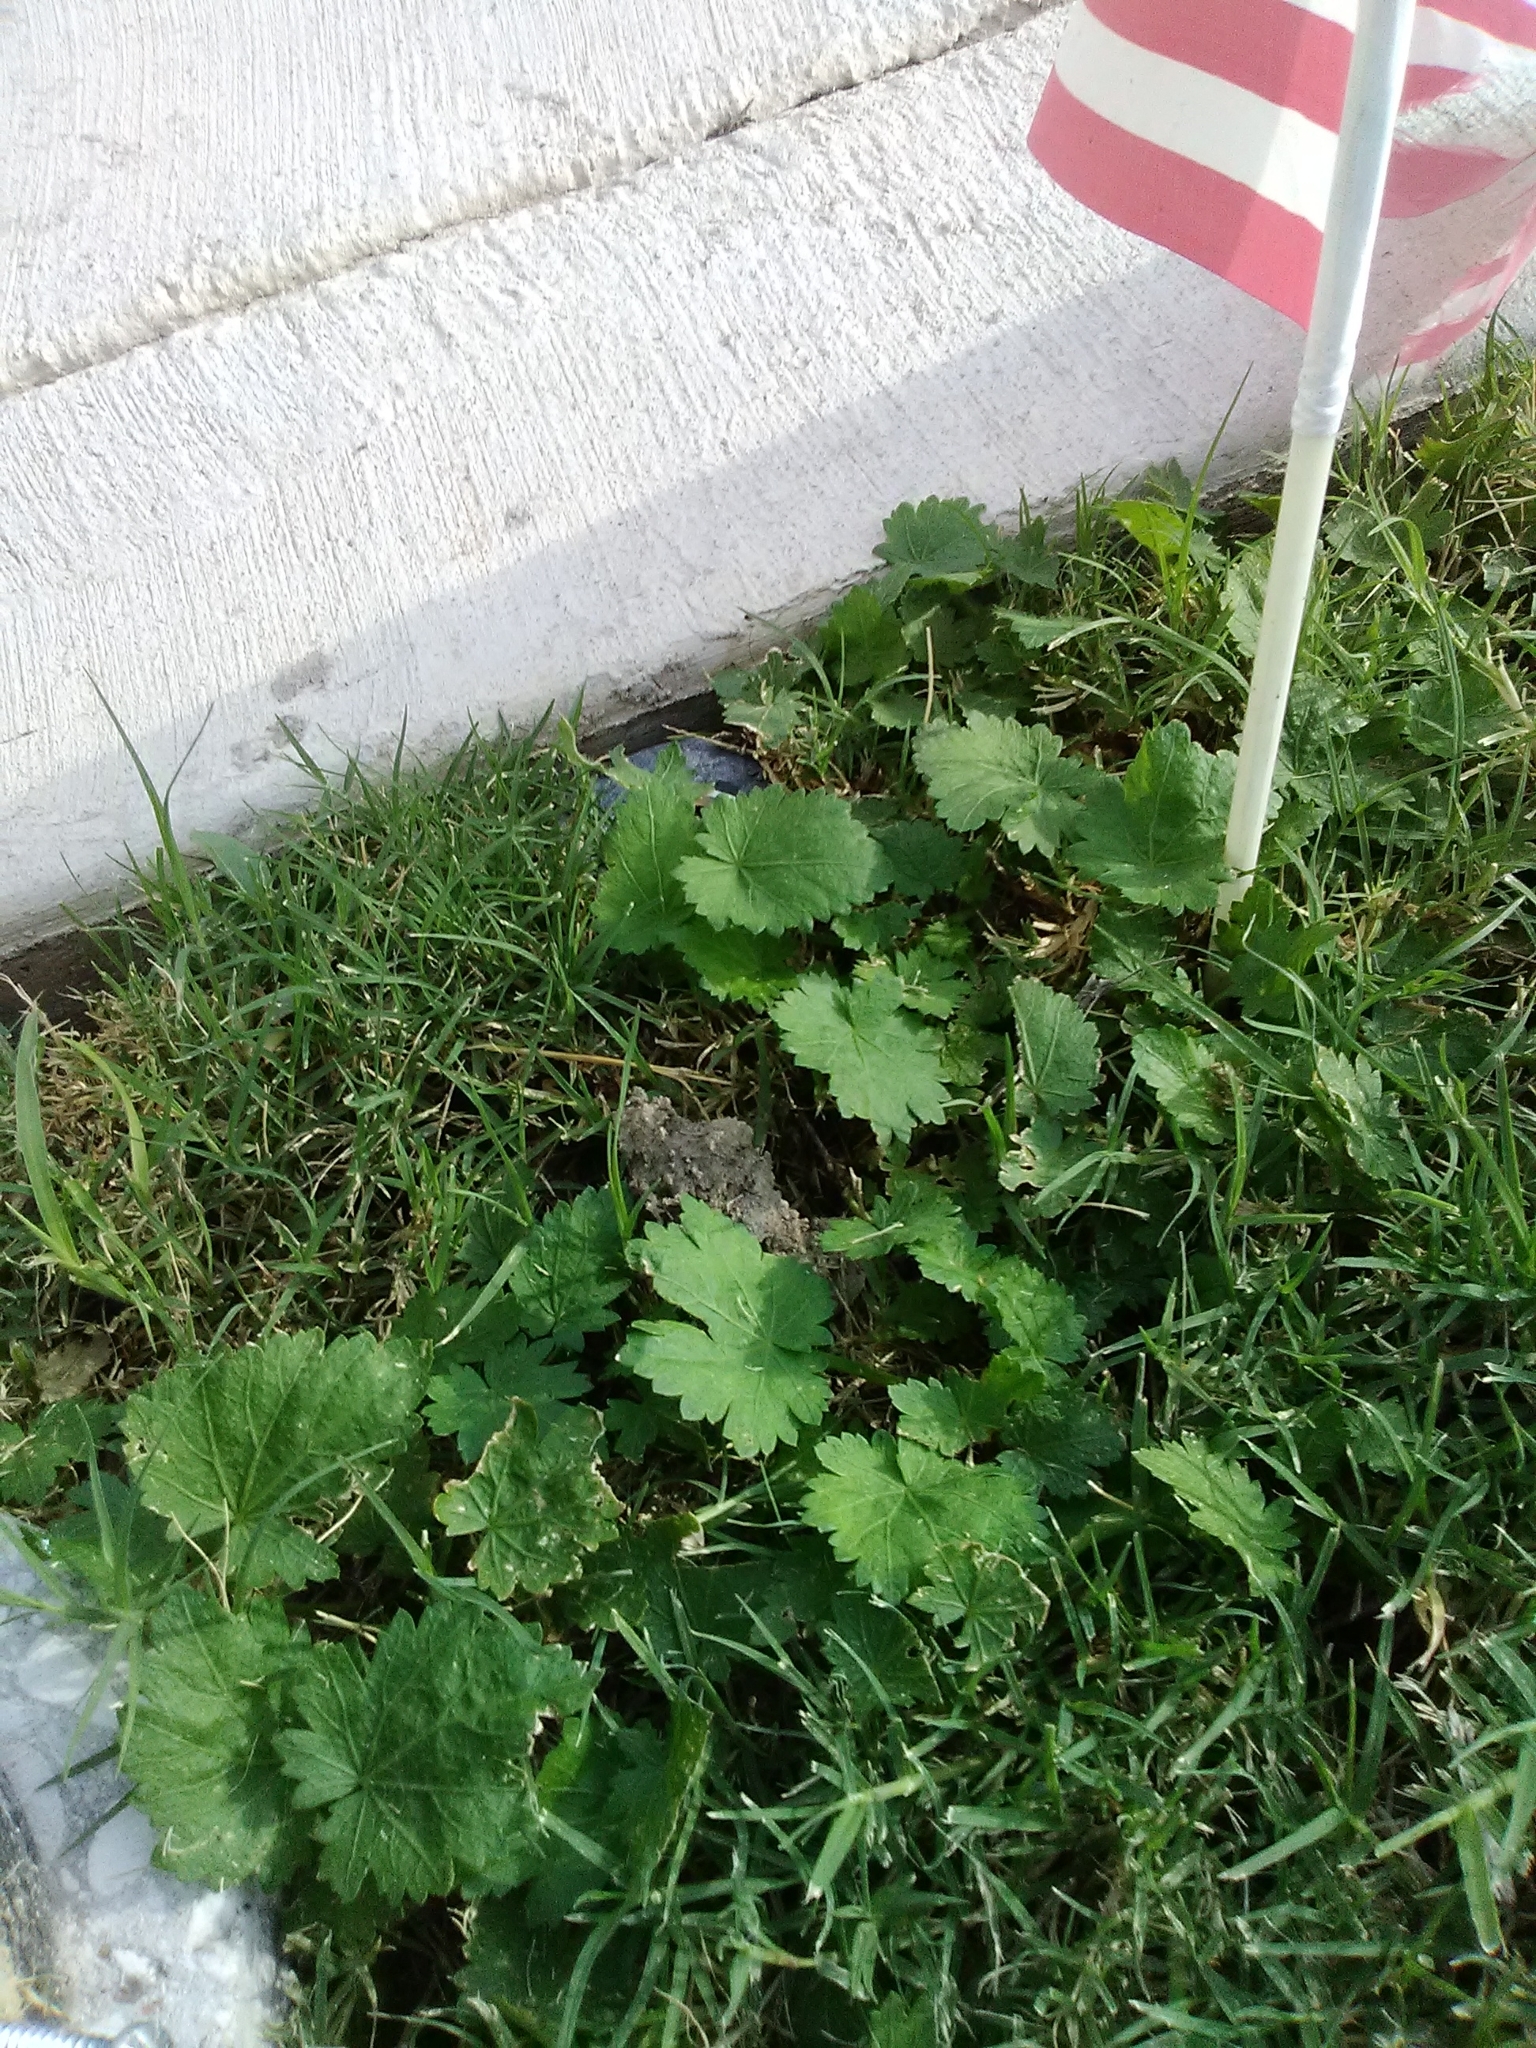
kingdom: Plantae
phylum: Tracheophyta
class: Magnoliopsida
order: Malvales
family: Malvaceae
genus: Modiola
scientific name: Modiola caroliniana
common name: Carolina bristlemallow
